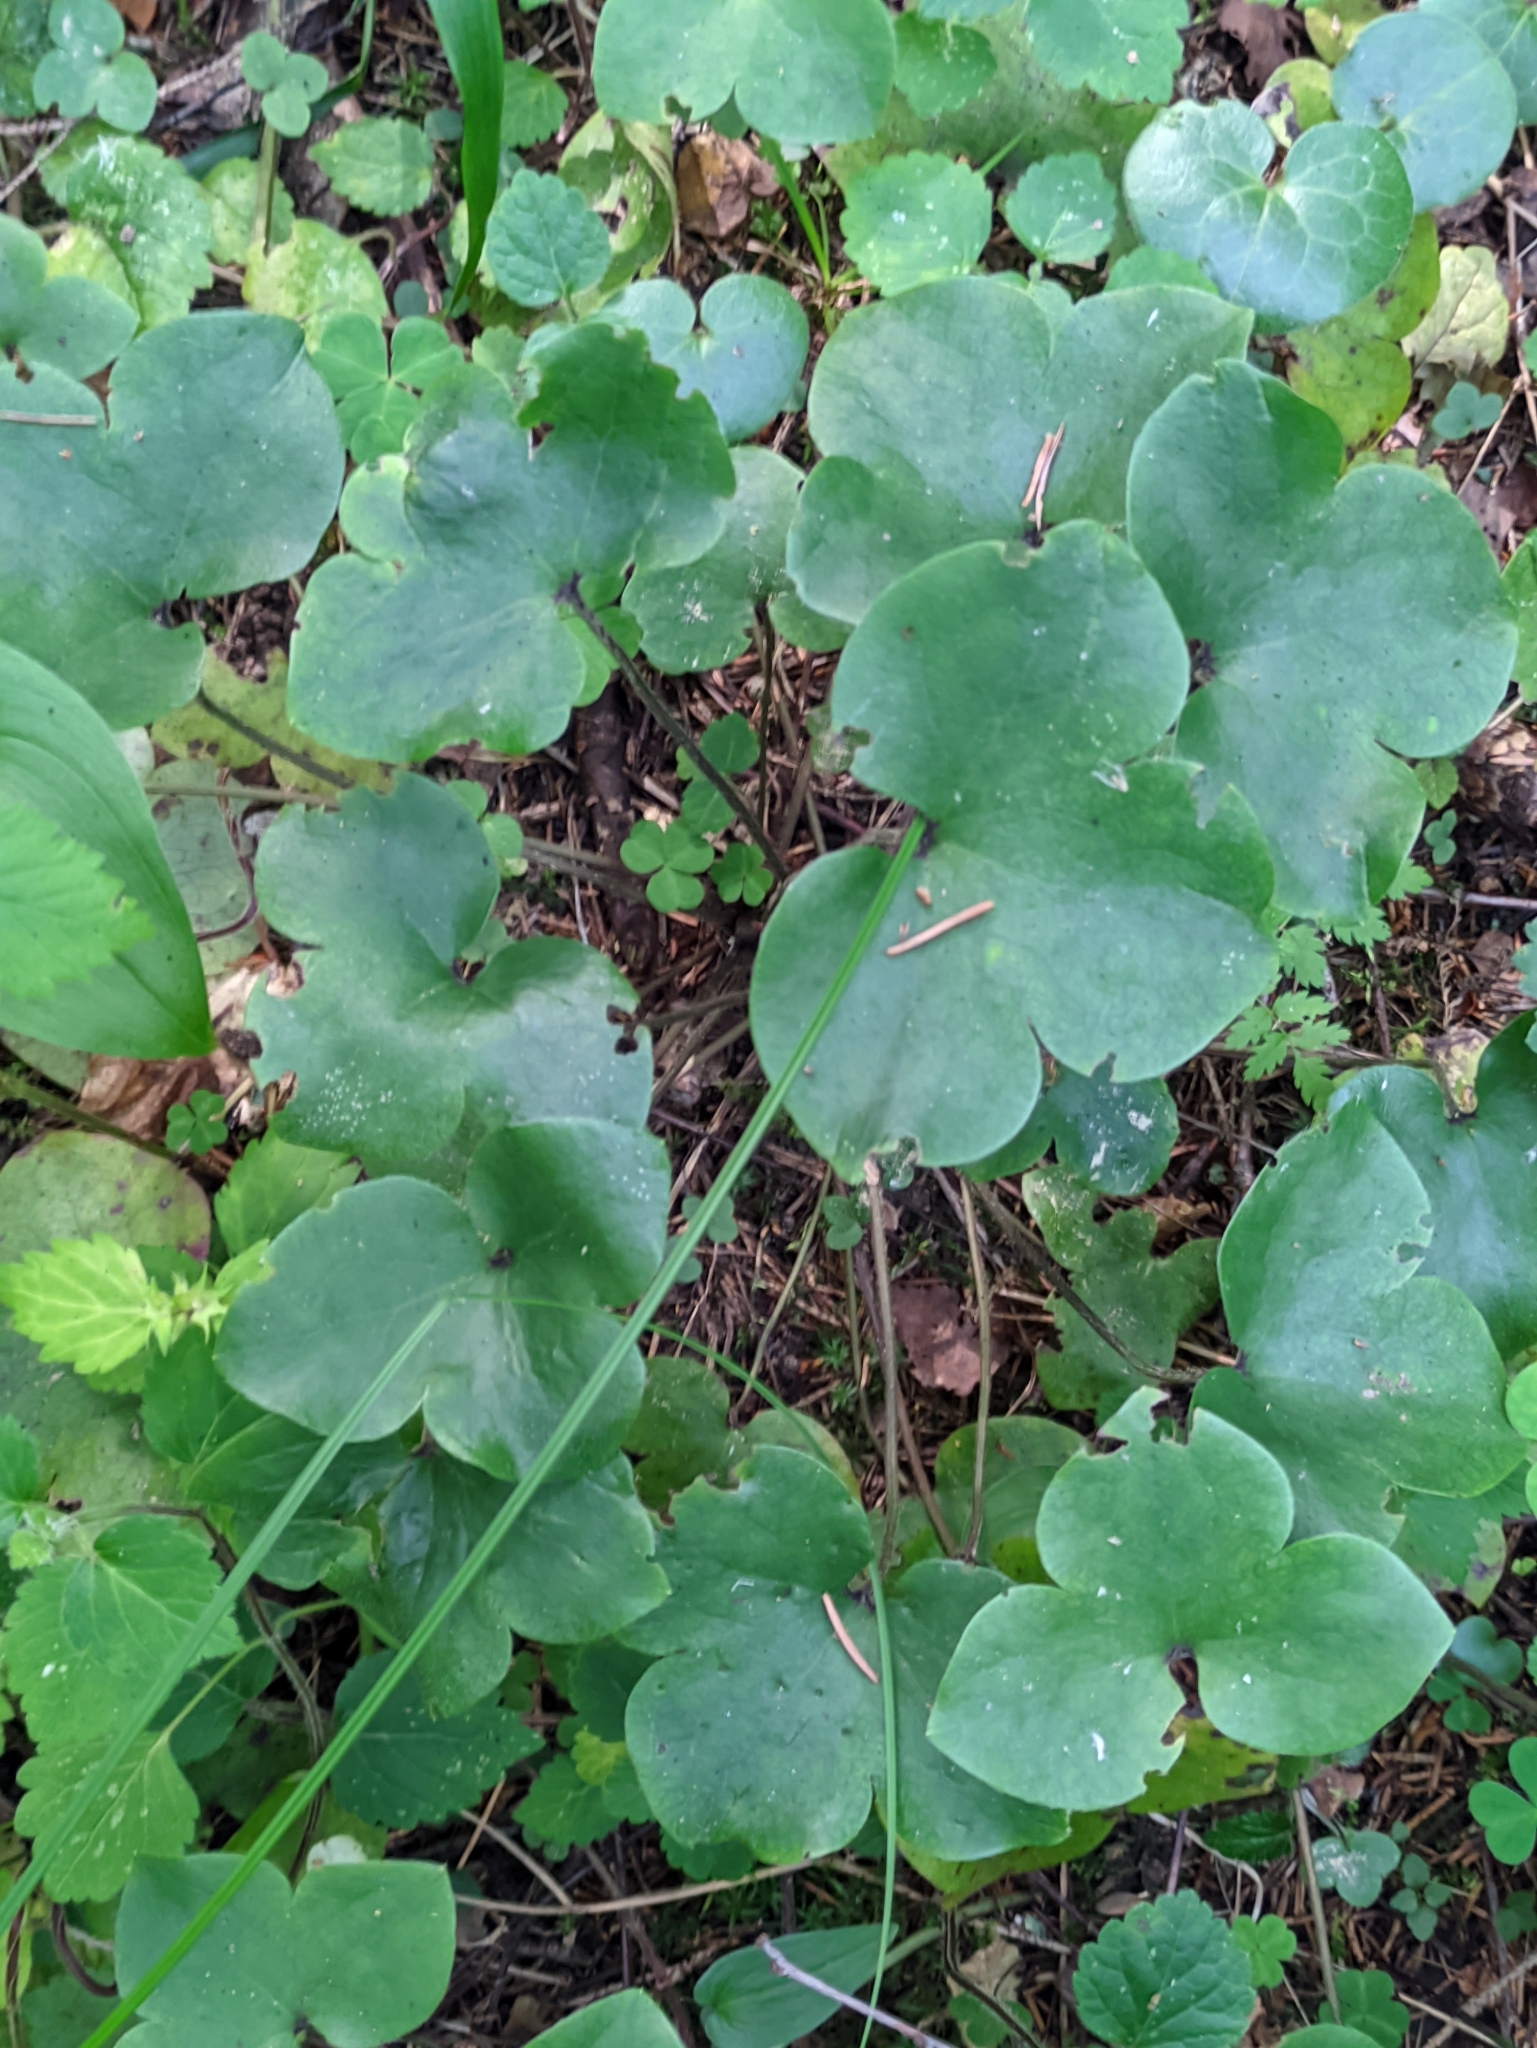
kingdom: Plantae
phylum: Tracheophyta
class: Magnoliopsida
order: Ranunculales
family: Ranunculaceae
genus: Hepatica
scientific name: Hepatica nobilis
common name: Liverleaf
